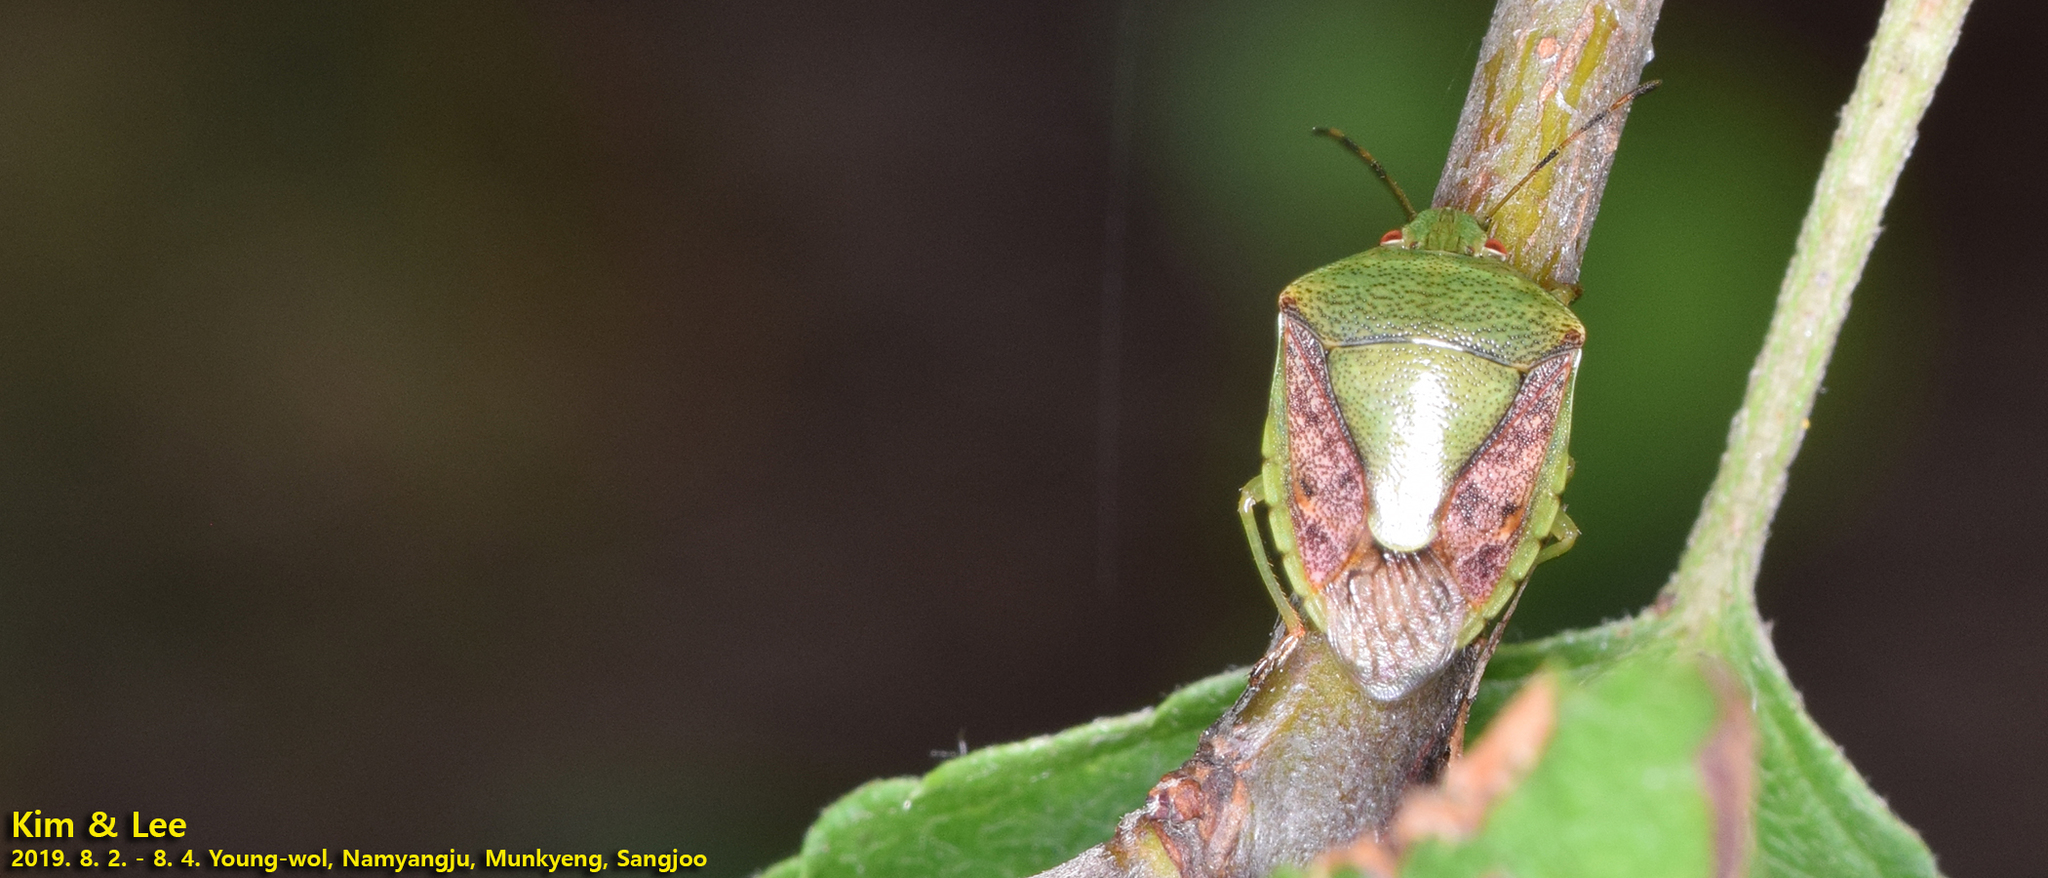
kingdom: Animalia
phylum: Arthropoda
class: Insecta
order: Hemiptera
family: Pentatomidae
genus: Plautia
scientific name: Plautia stali
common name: Stink bug
